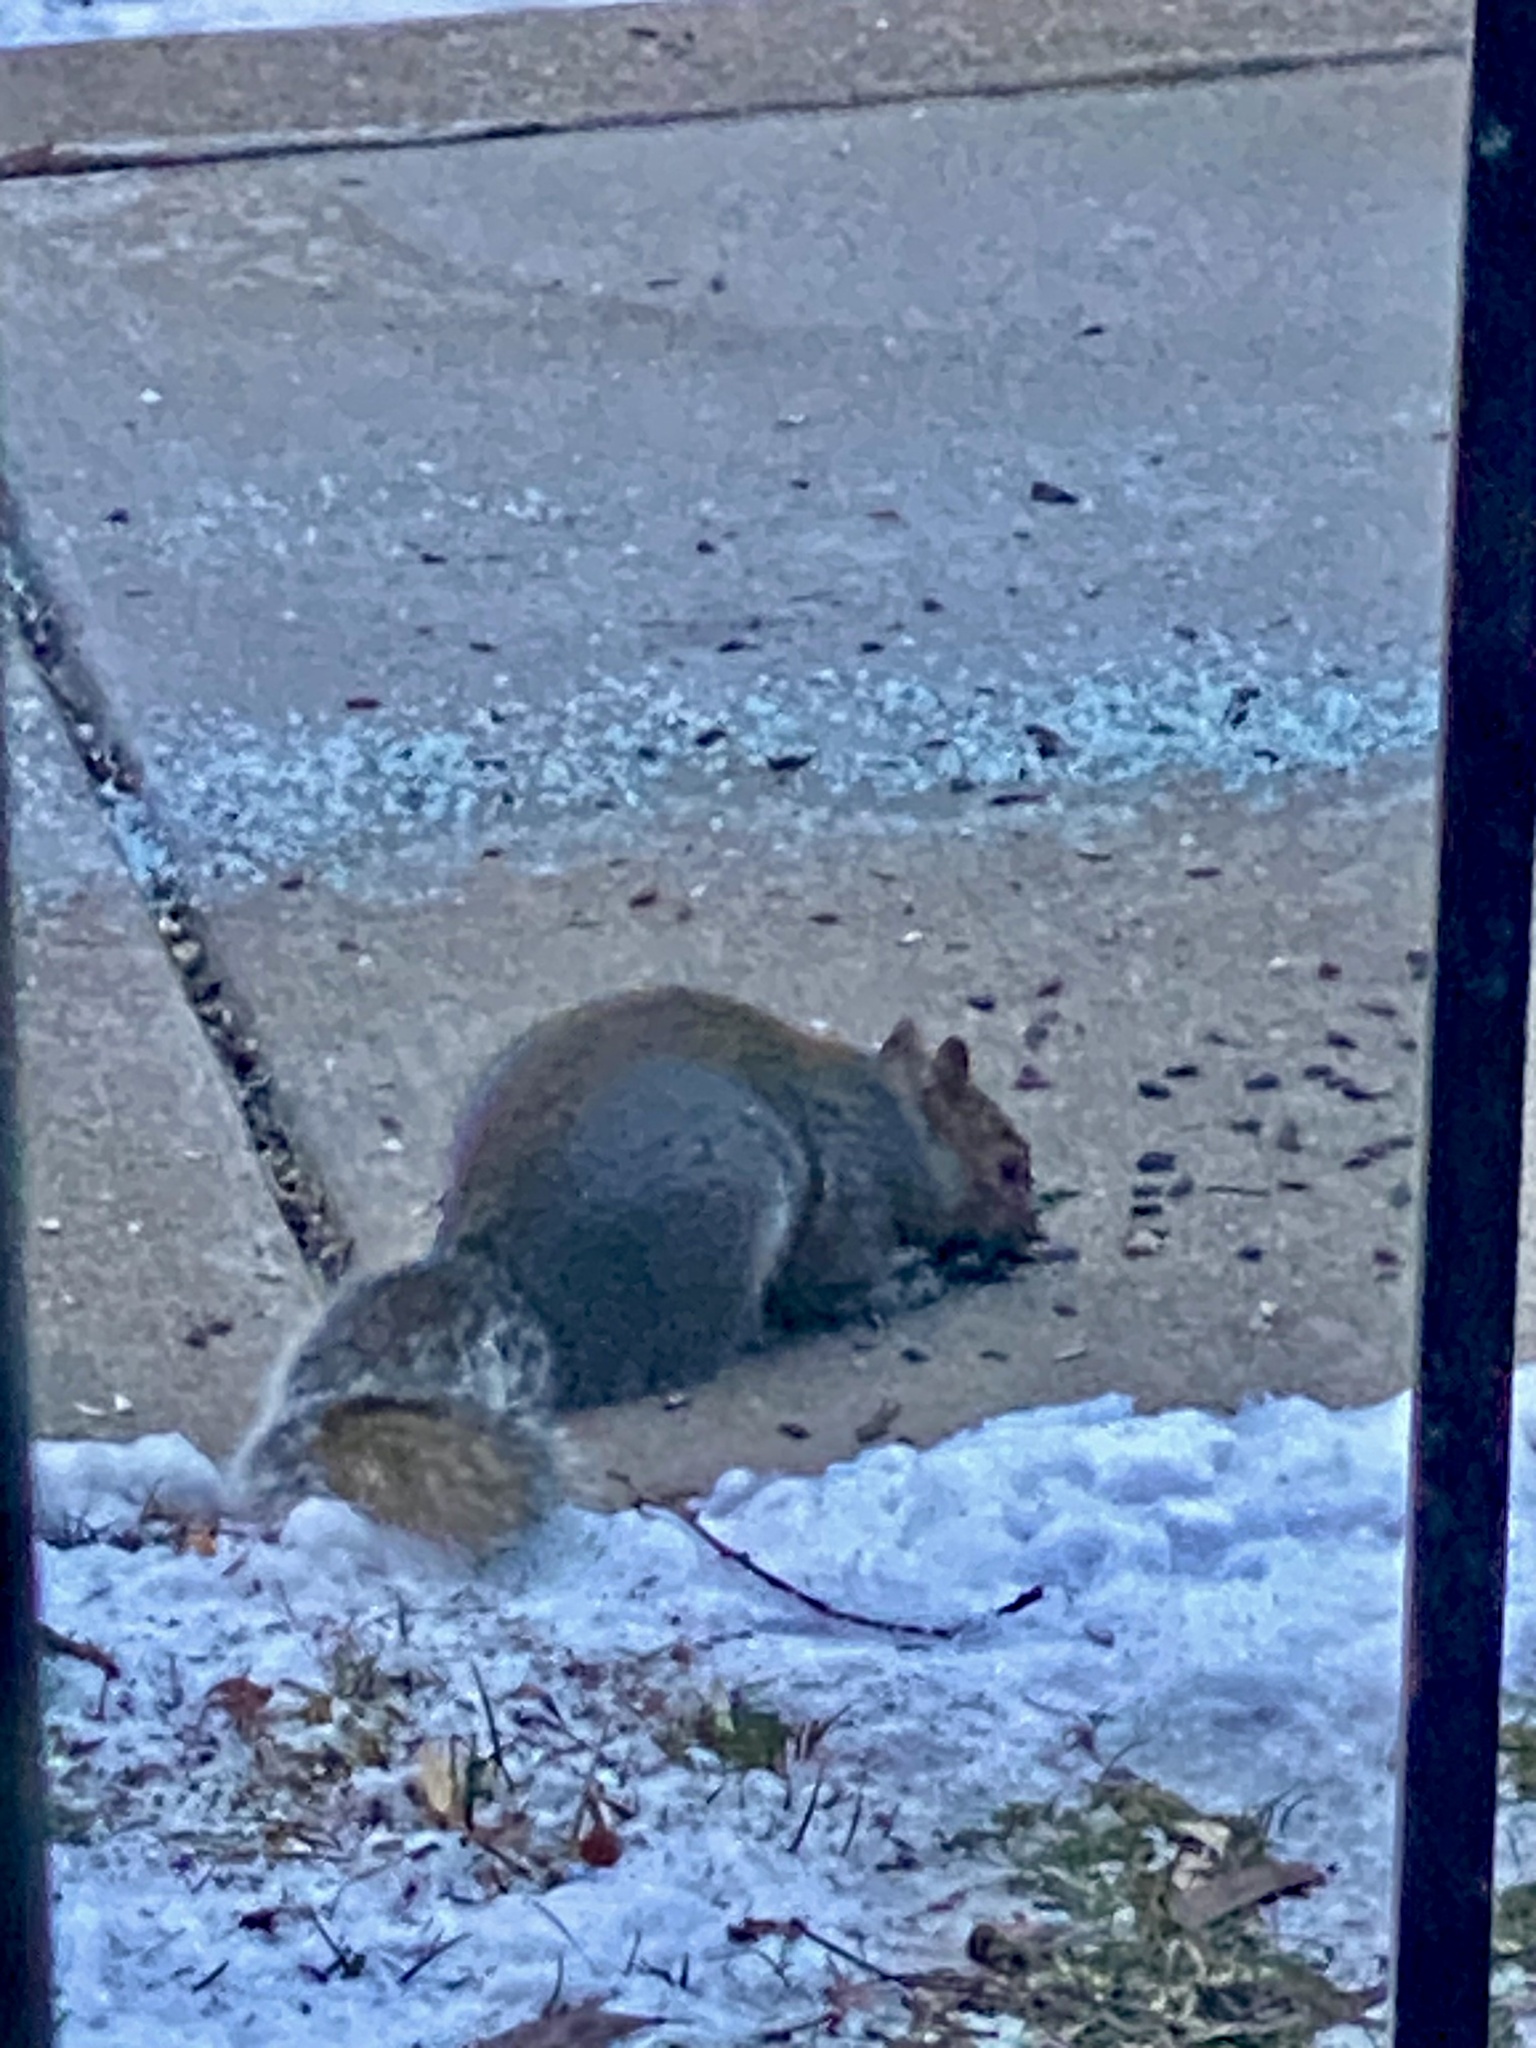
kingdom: Animalia
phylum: Chordata
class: Mammalia
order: Rodentia
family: Sciuridae
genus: Sciurus
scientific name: Sciurus carolinensis
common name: Eastern gray squirrel
